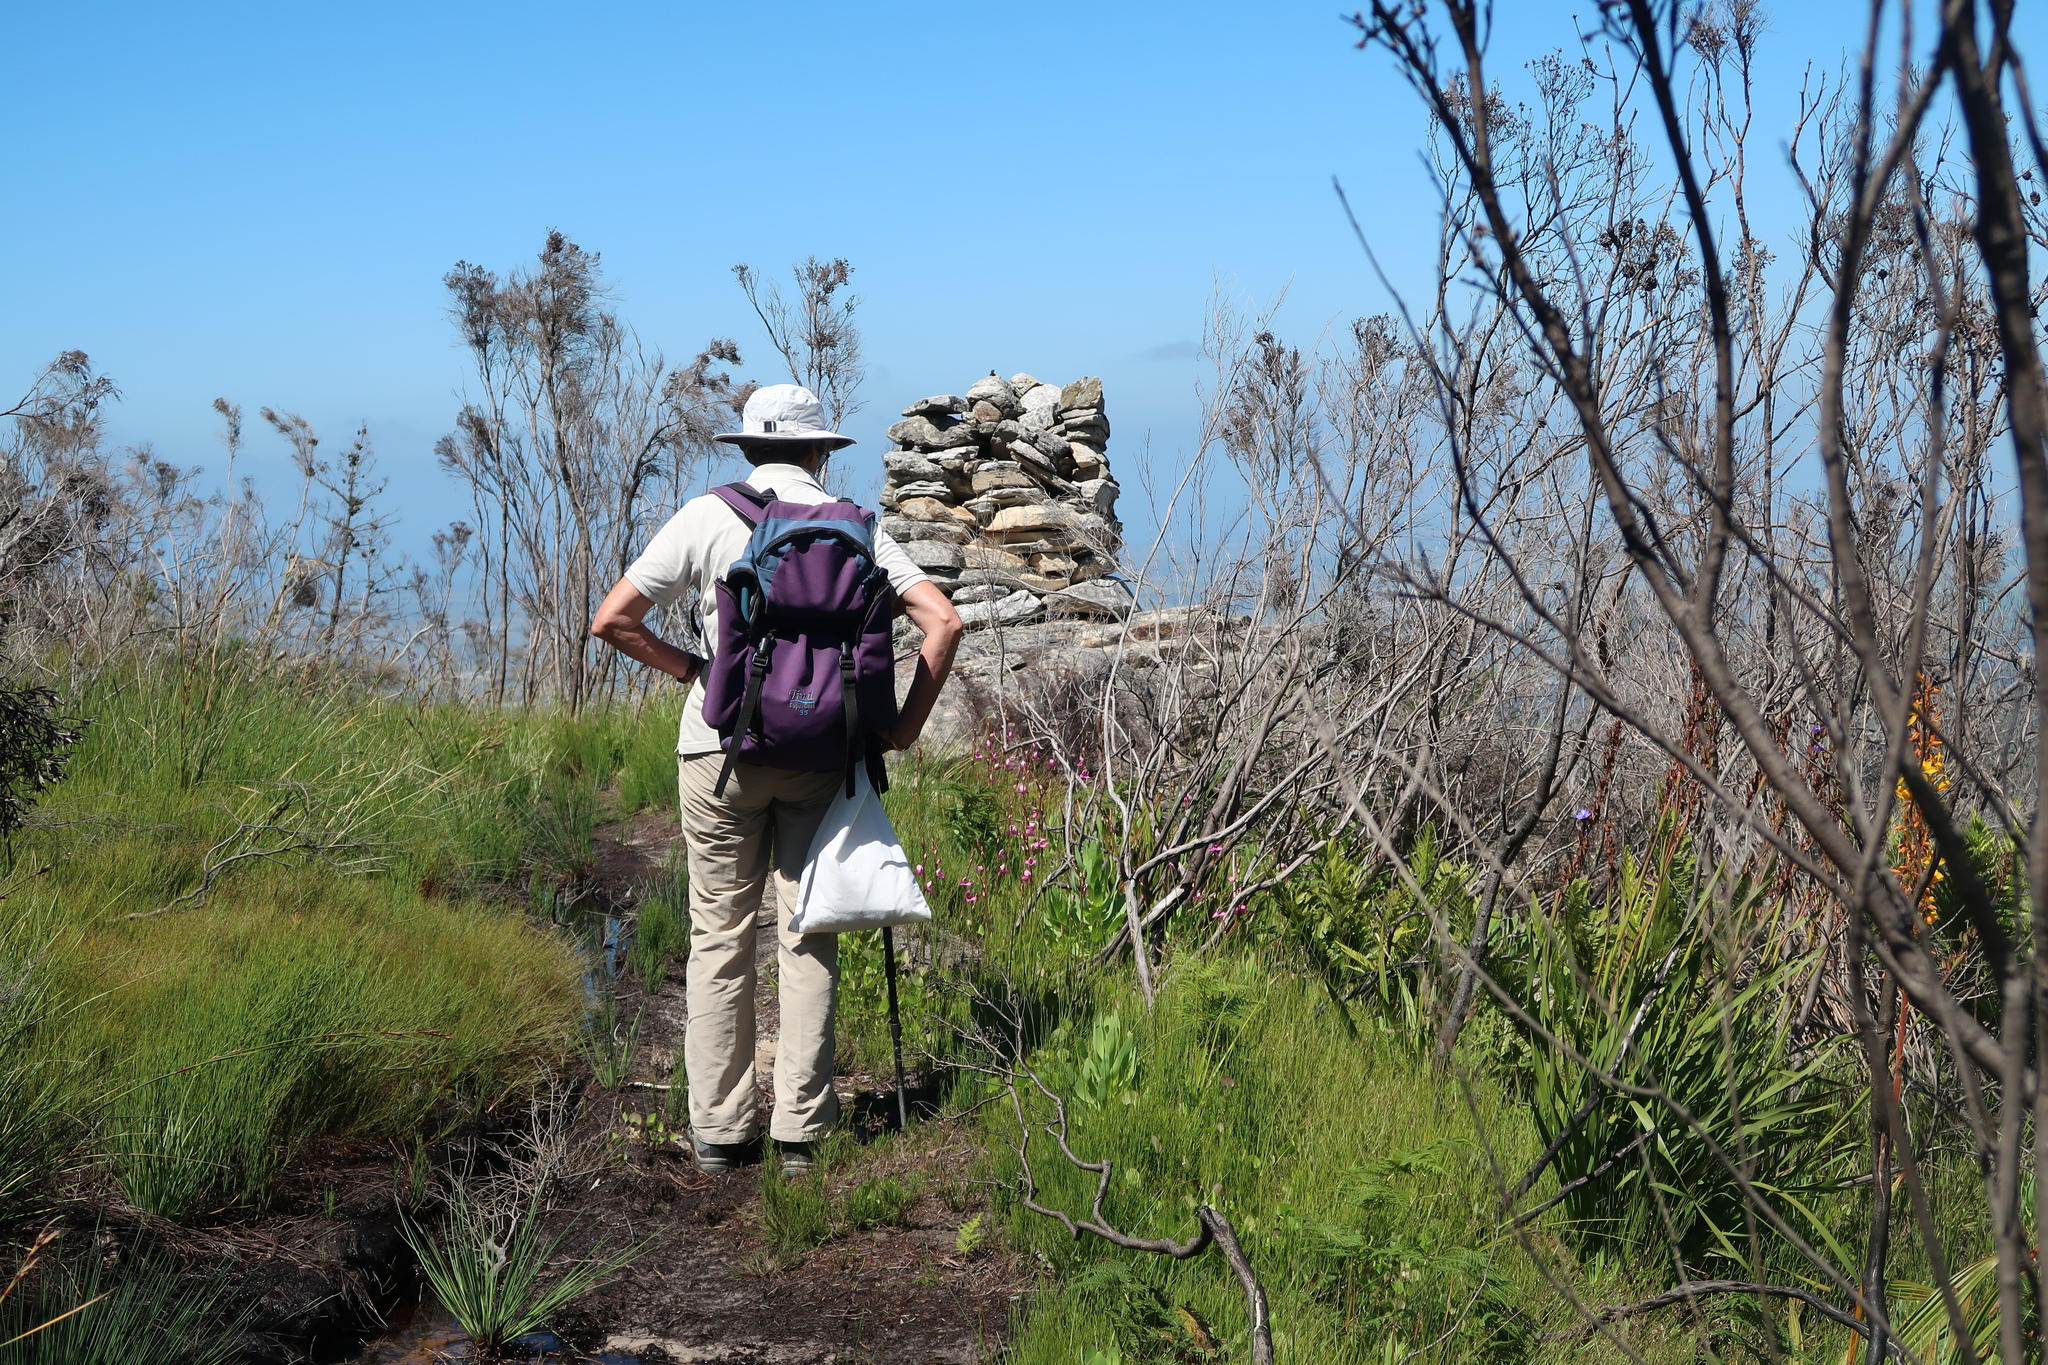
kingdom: Plantae
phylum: Tracheophyta
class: Liliopsida
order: Commelinales
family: Haemodoraceae
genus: Wachendorfia
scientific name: Wachendorfia thyrsiflora
